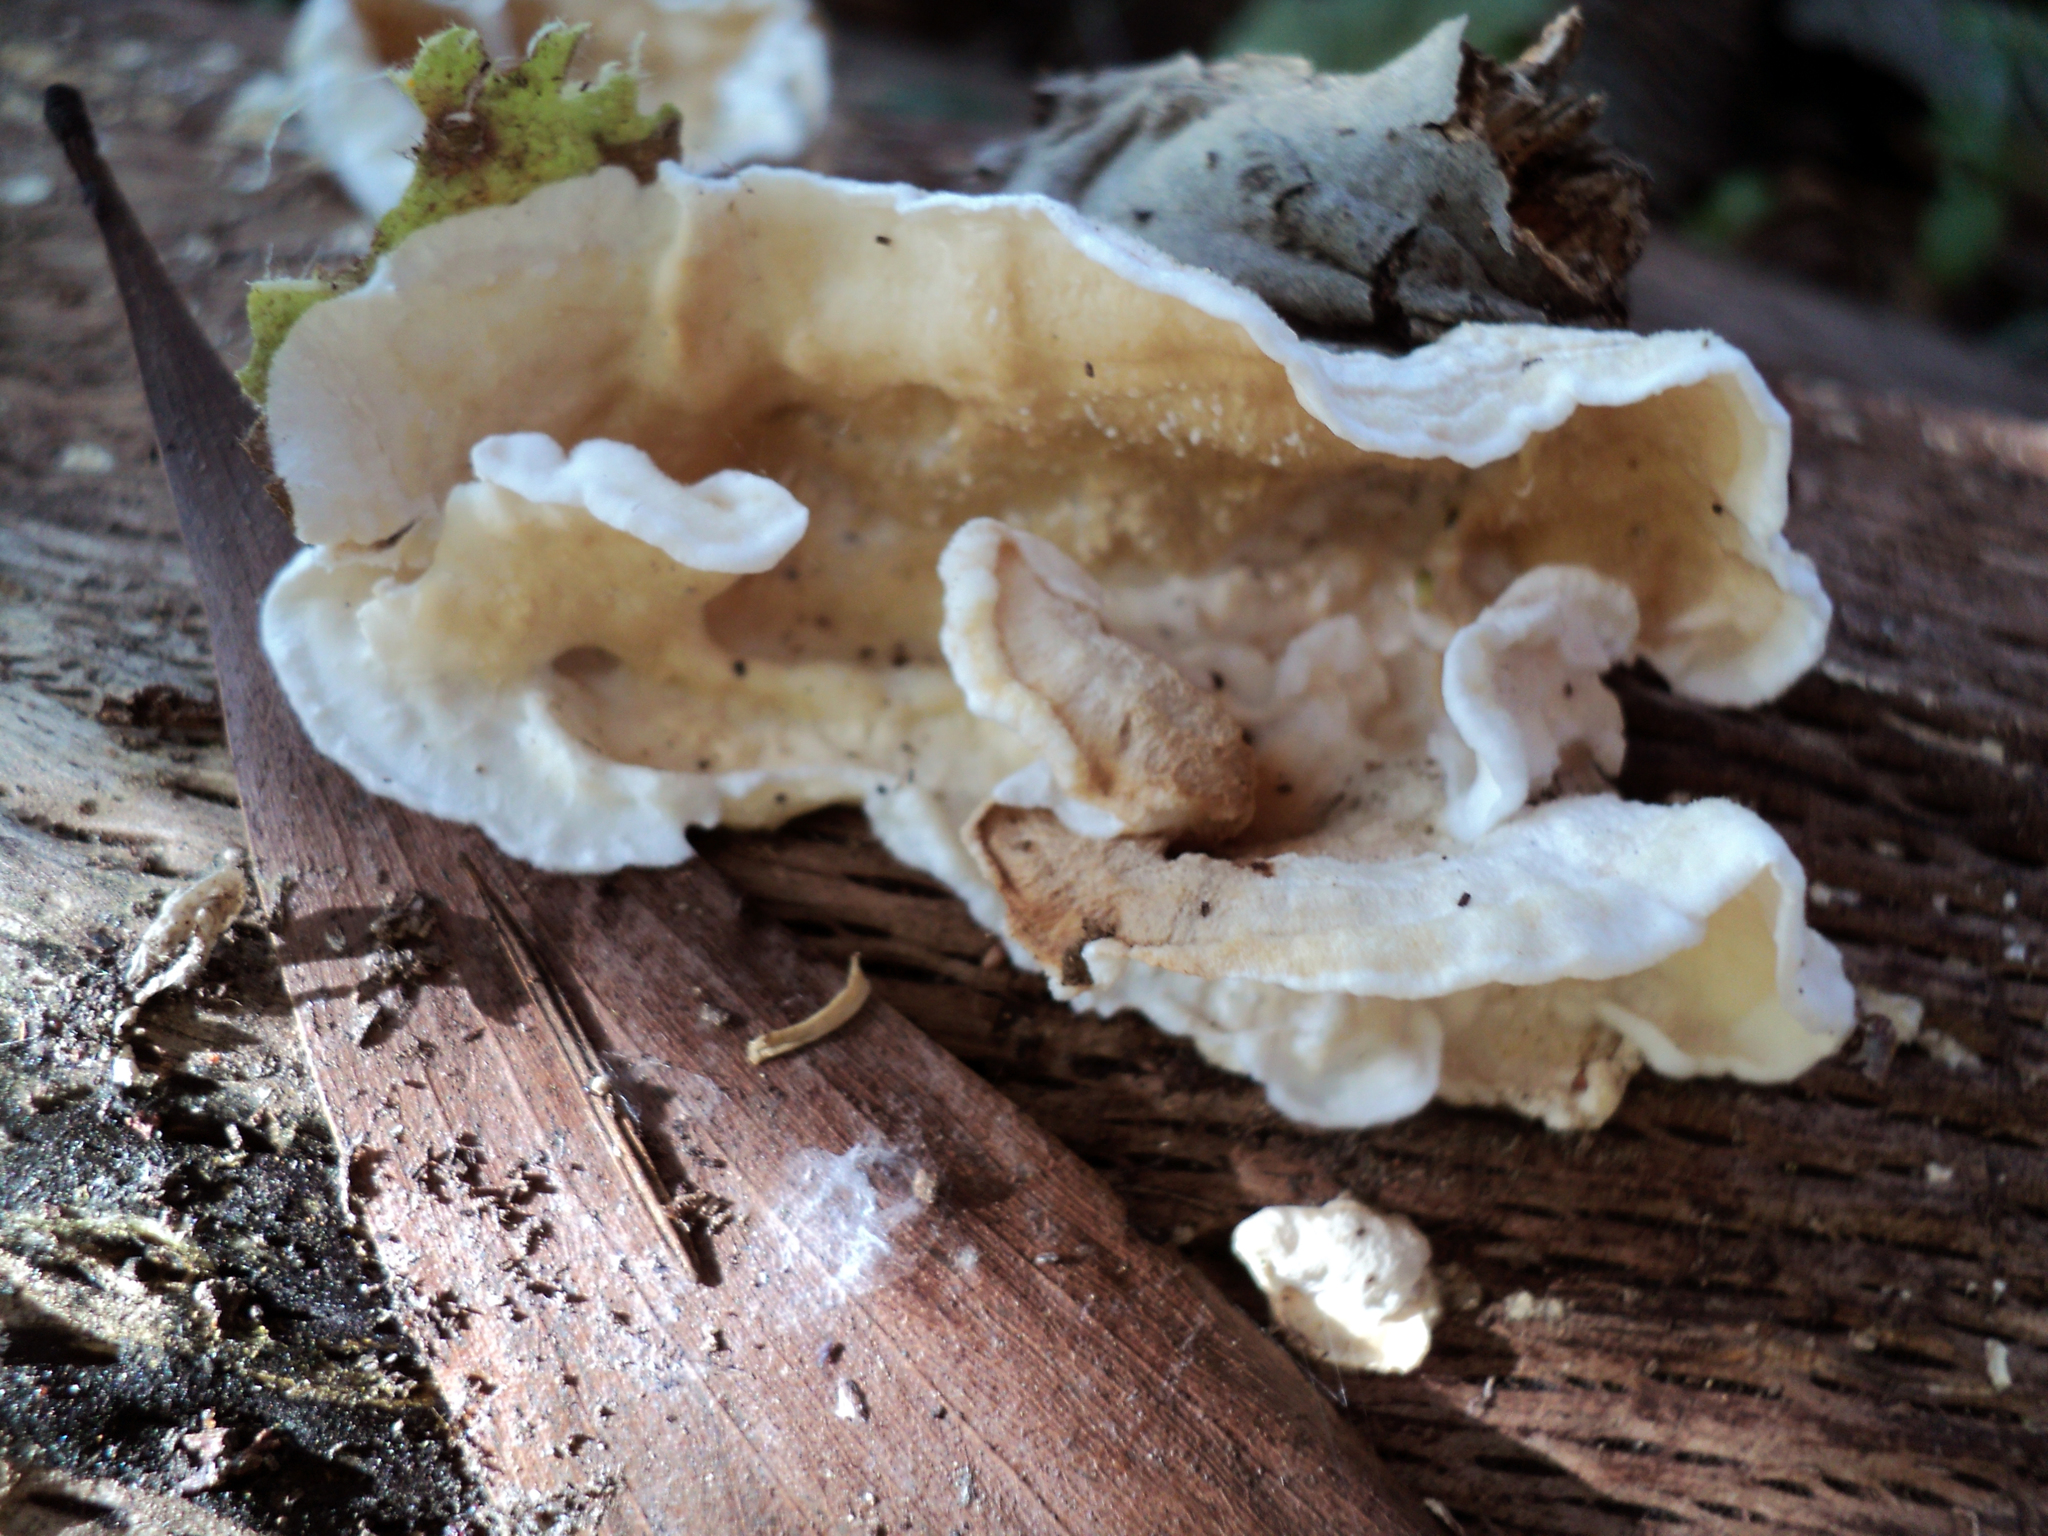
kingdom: Fungi
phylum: Basidiomycota
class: Agaricomycetes
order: Polyporales
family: Irpicaceae
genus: Byssomerulius
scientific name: Byssomerulius corium
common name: Netted crust
